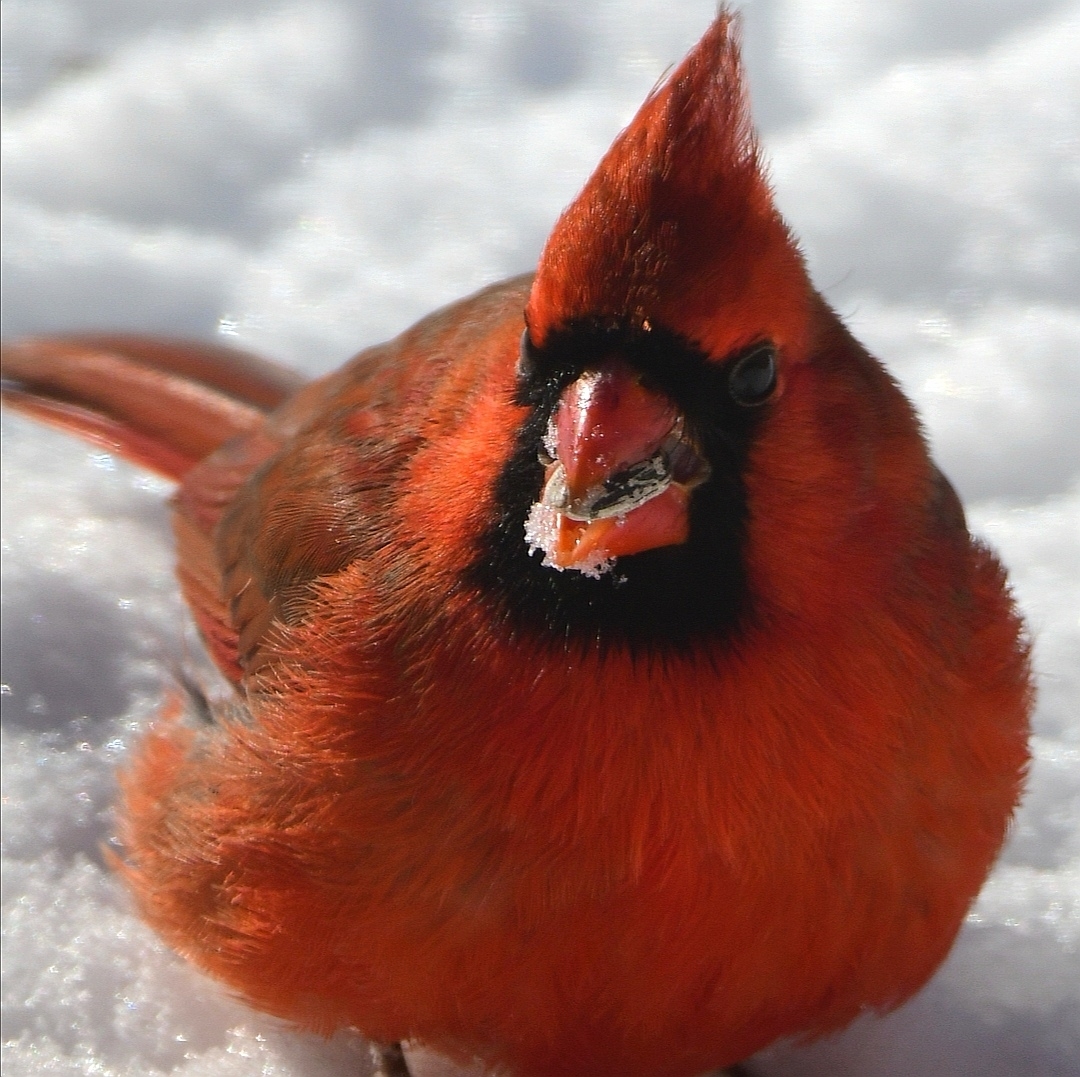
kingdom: Animalia
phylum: Chordata
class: Aves
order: Passeriformes
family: Cardinalidae
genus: Cardinalis
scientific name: Cardinalis cardinalis
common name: Northern cardinal
